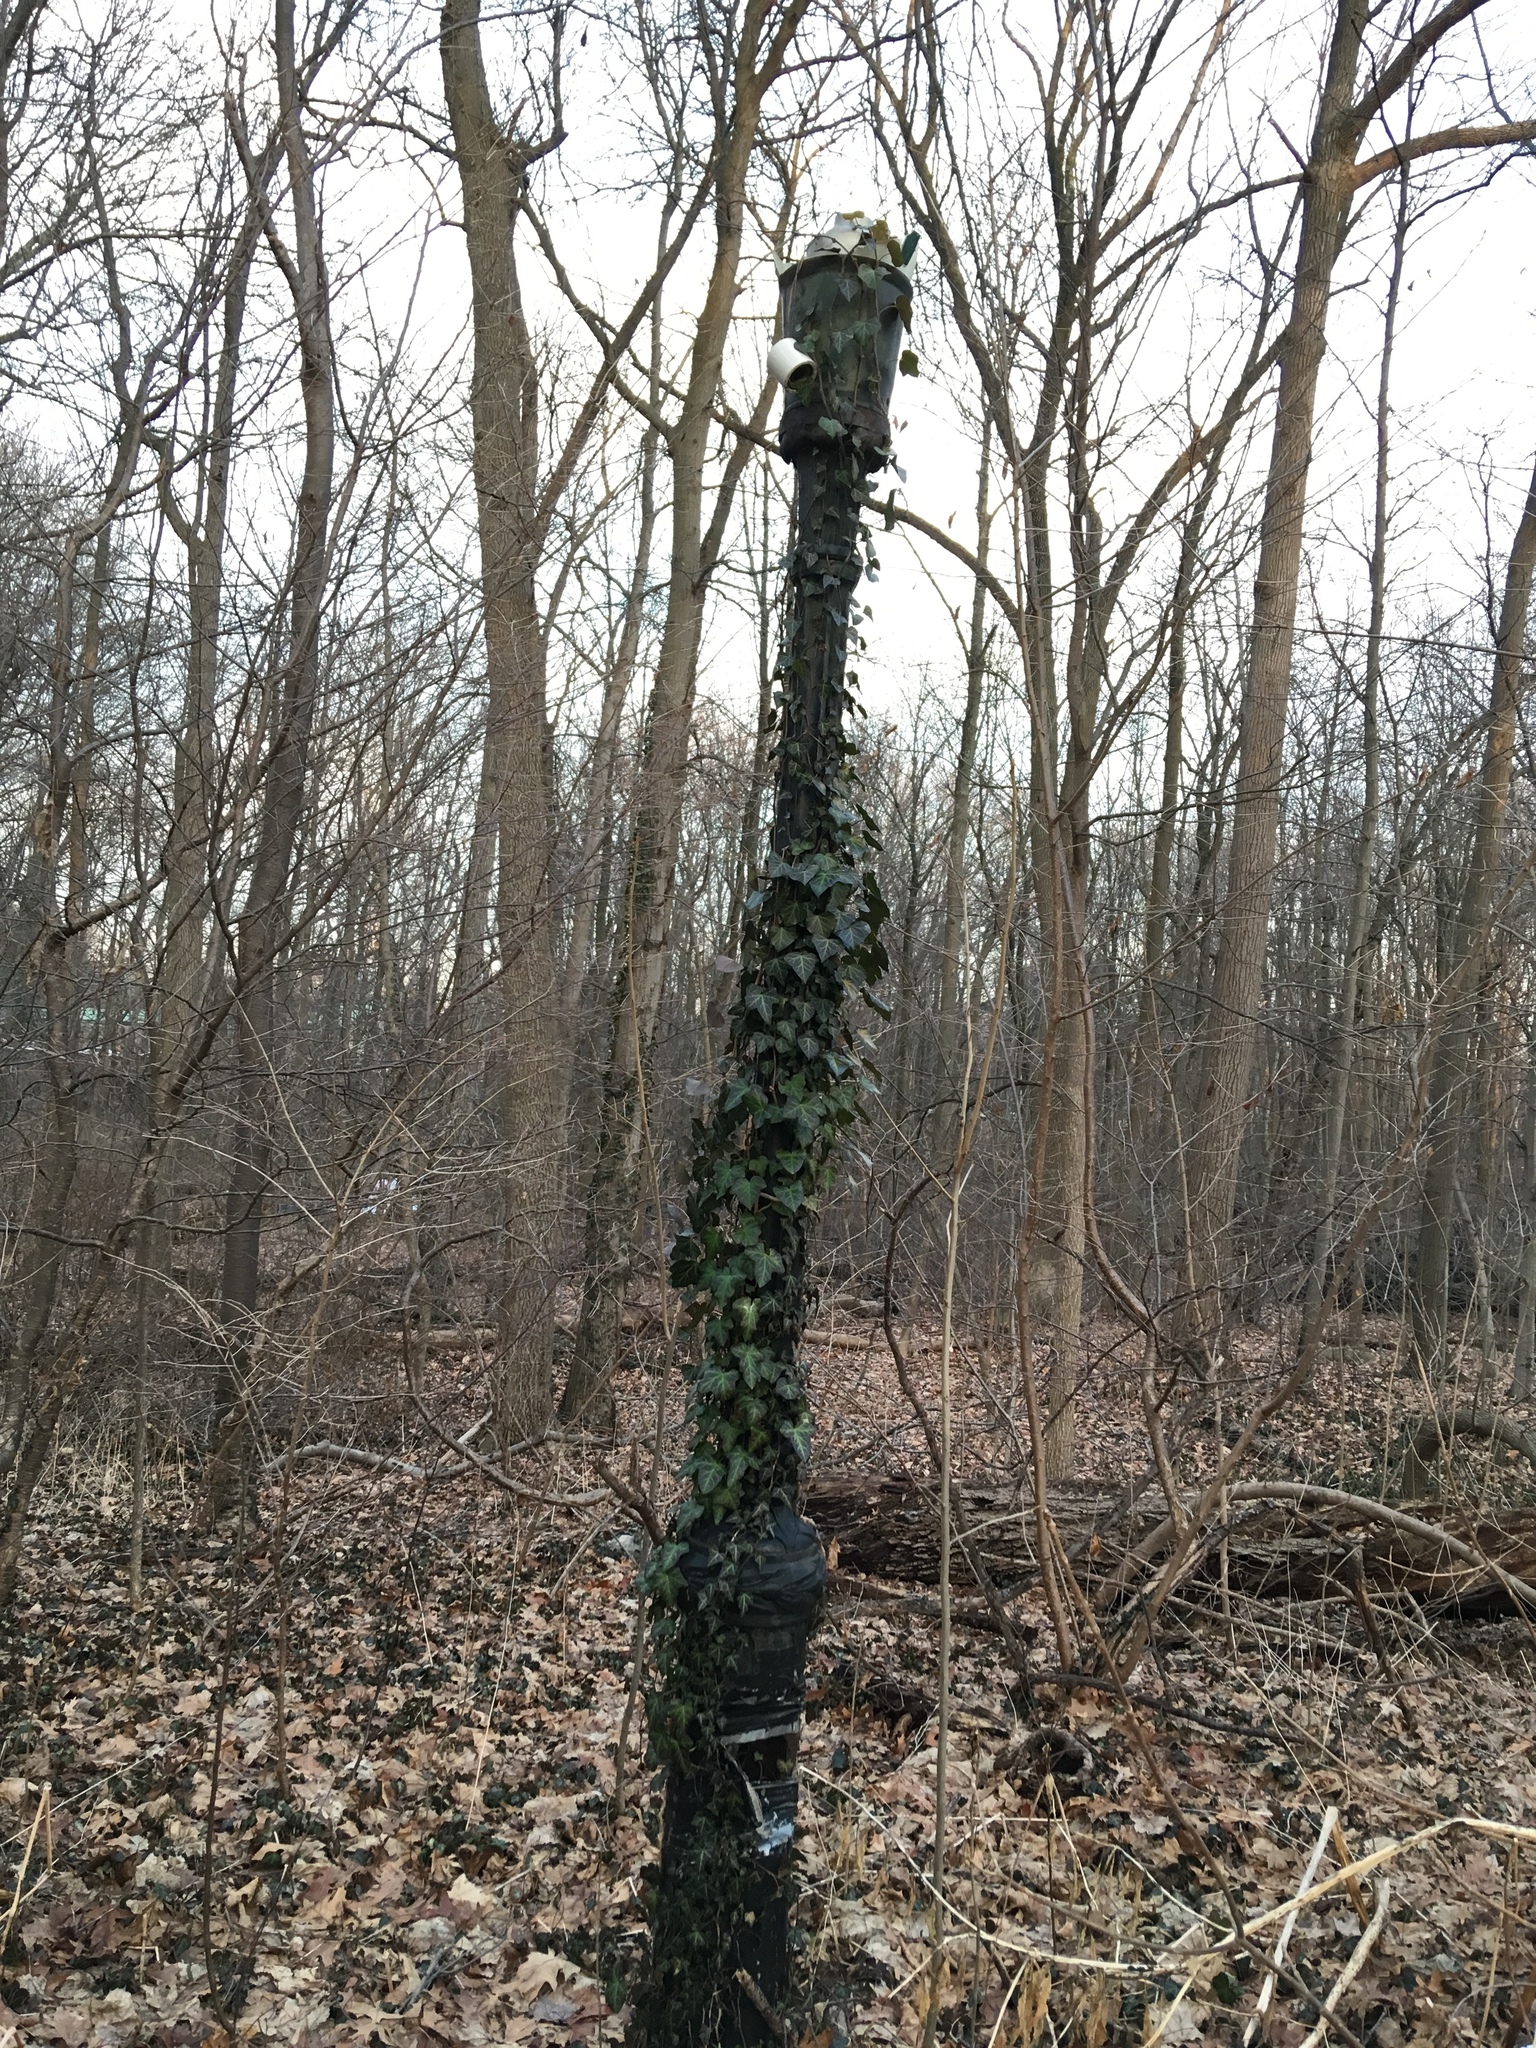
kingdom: Plantae
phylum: Tracheophyta
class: Magnoliopsida
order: Apiales
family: Araliaceae
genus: Hedera
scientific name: Hedera helix
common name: Ivy
